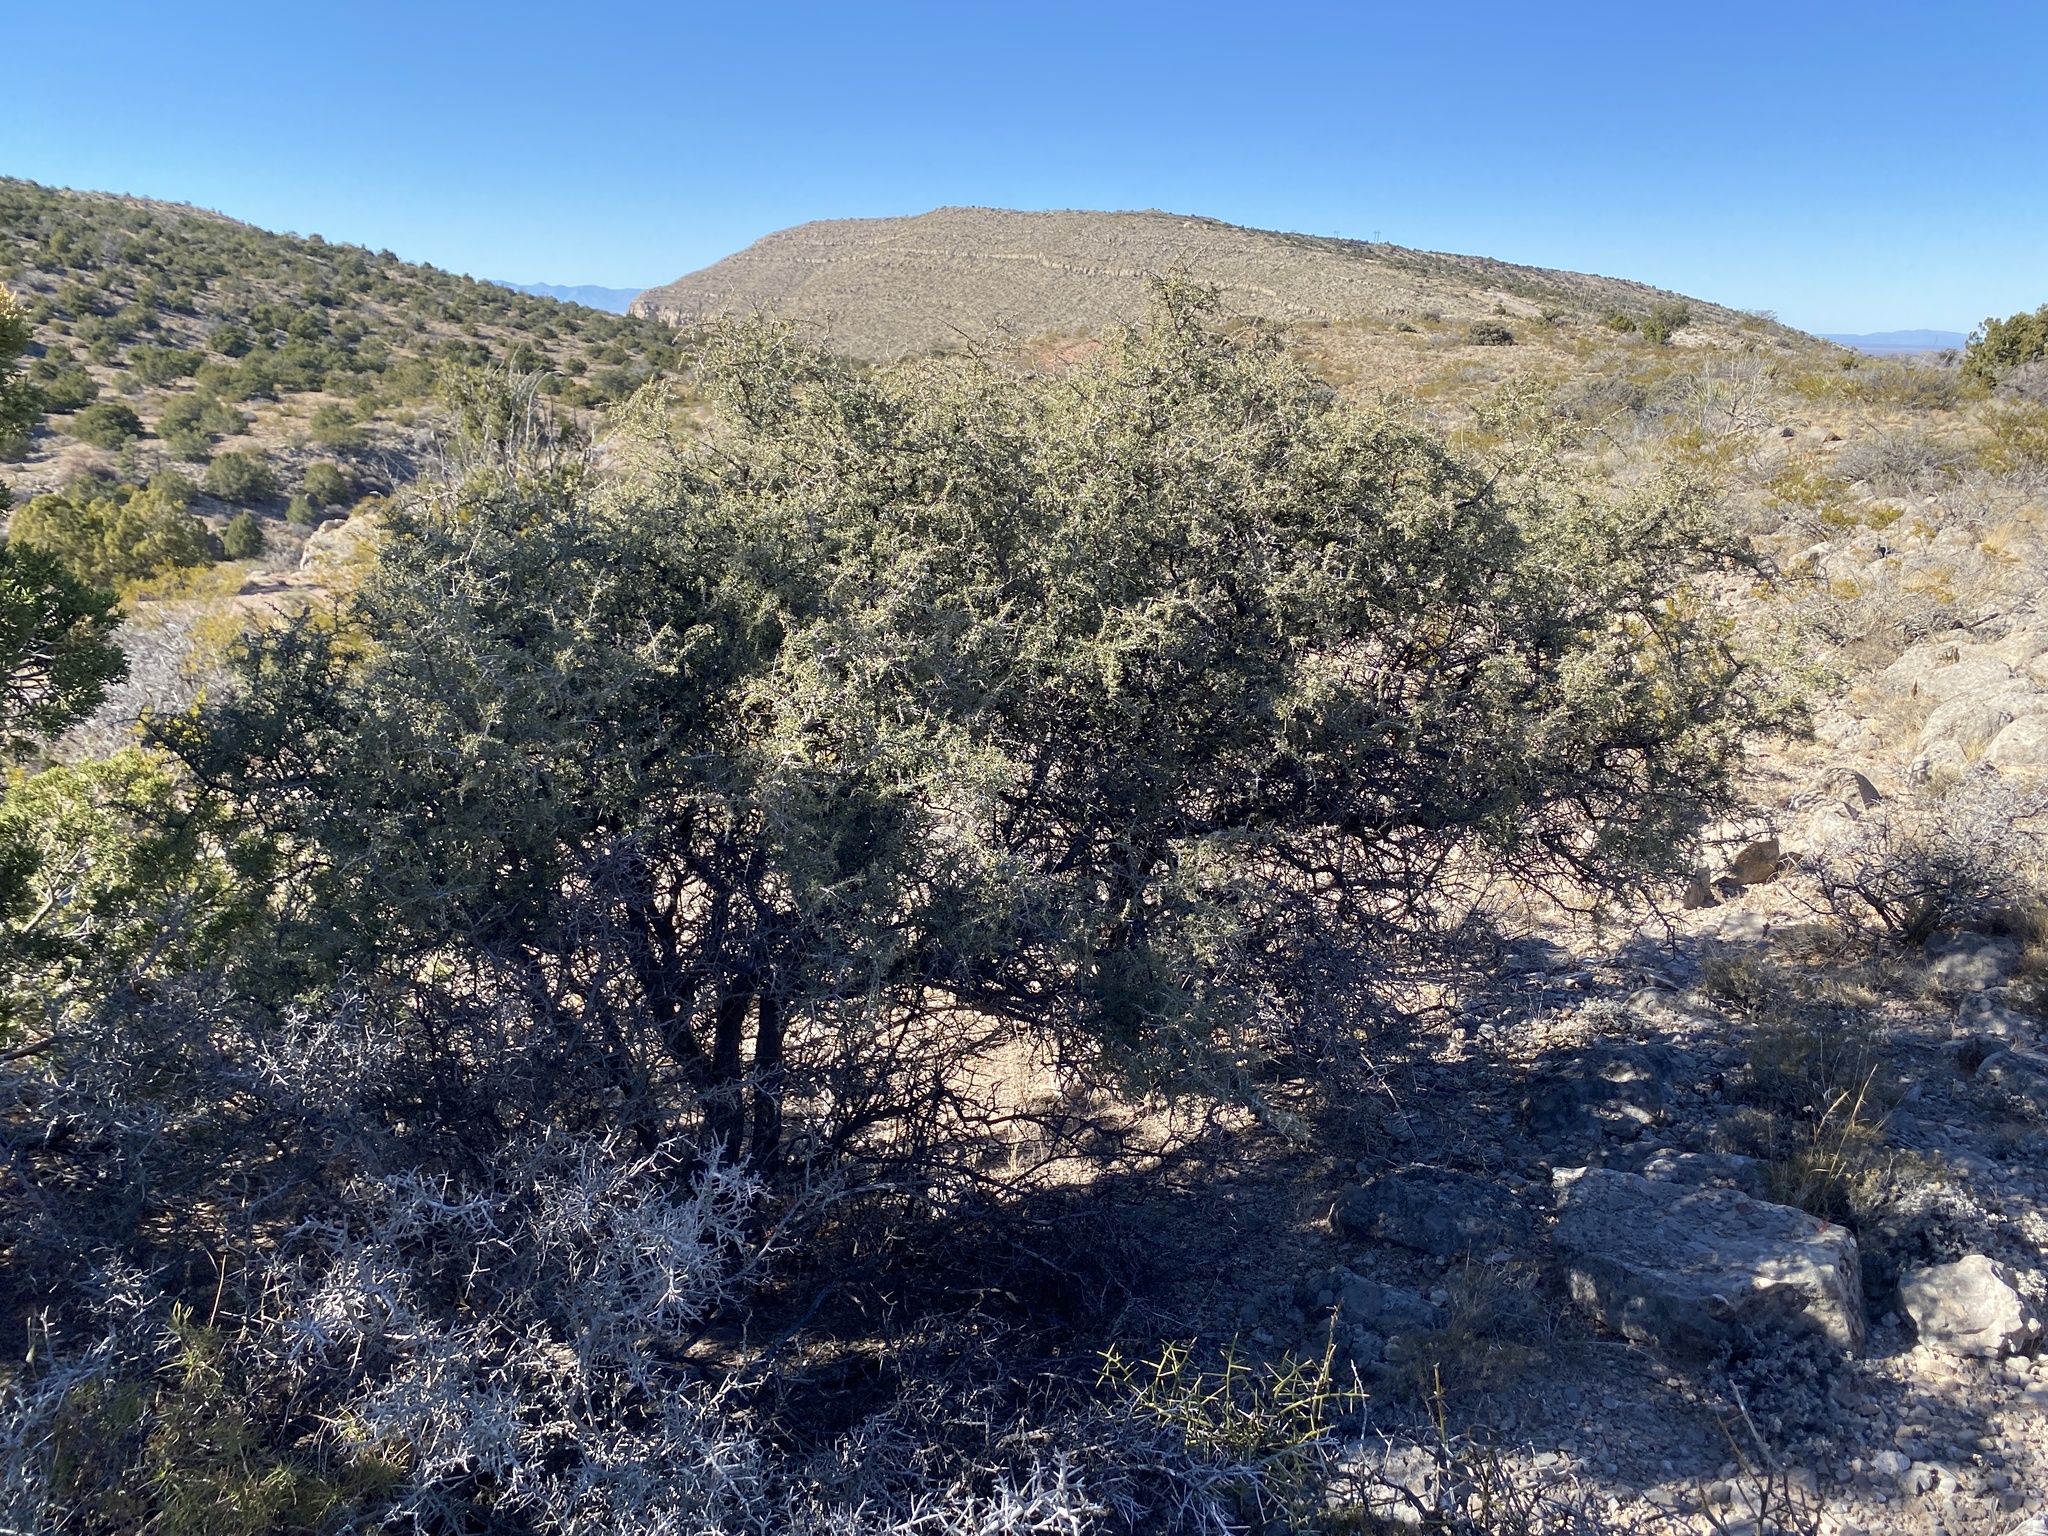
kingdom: Plantae
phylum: Tracheophyta
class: Magnoliopsida
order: Rosales
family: Rhamnaceae
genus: Condalia
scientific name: Condalia warnockii
